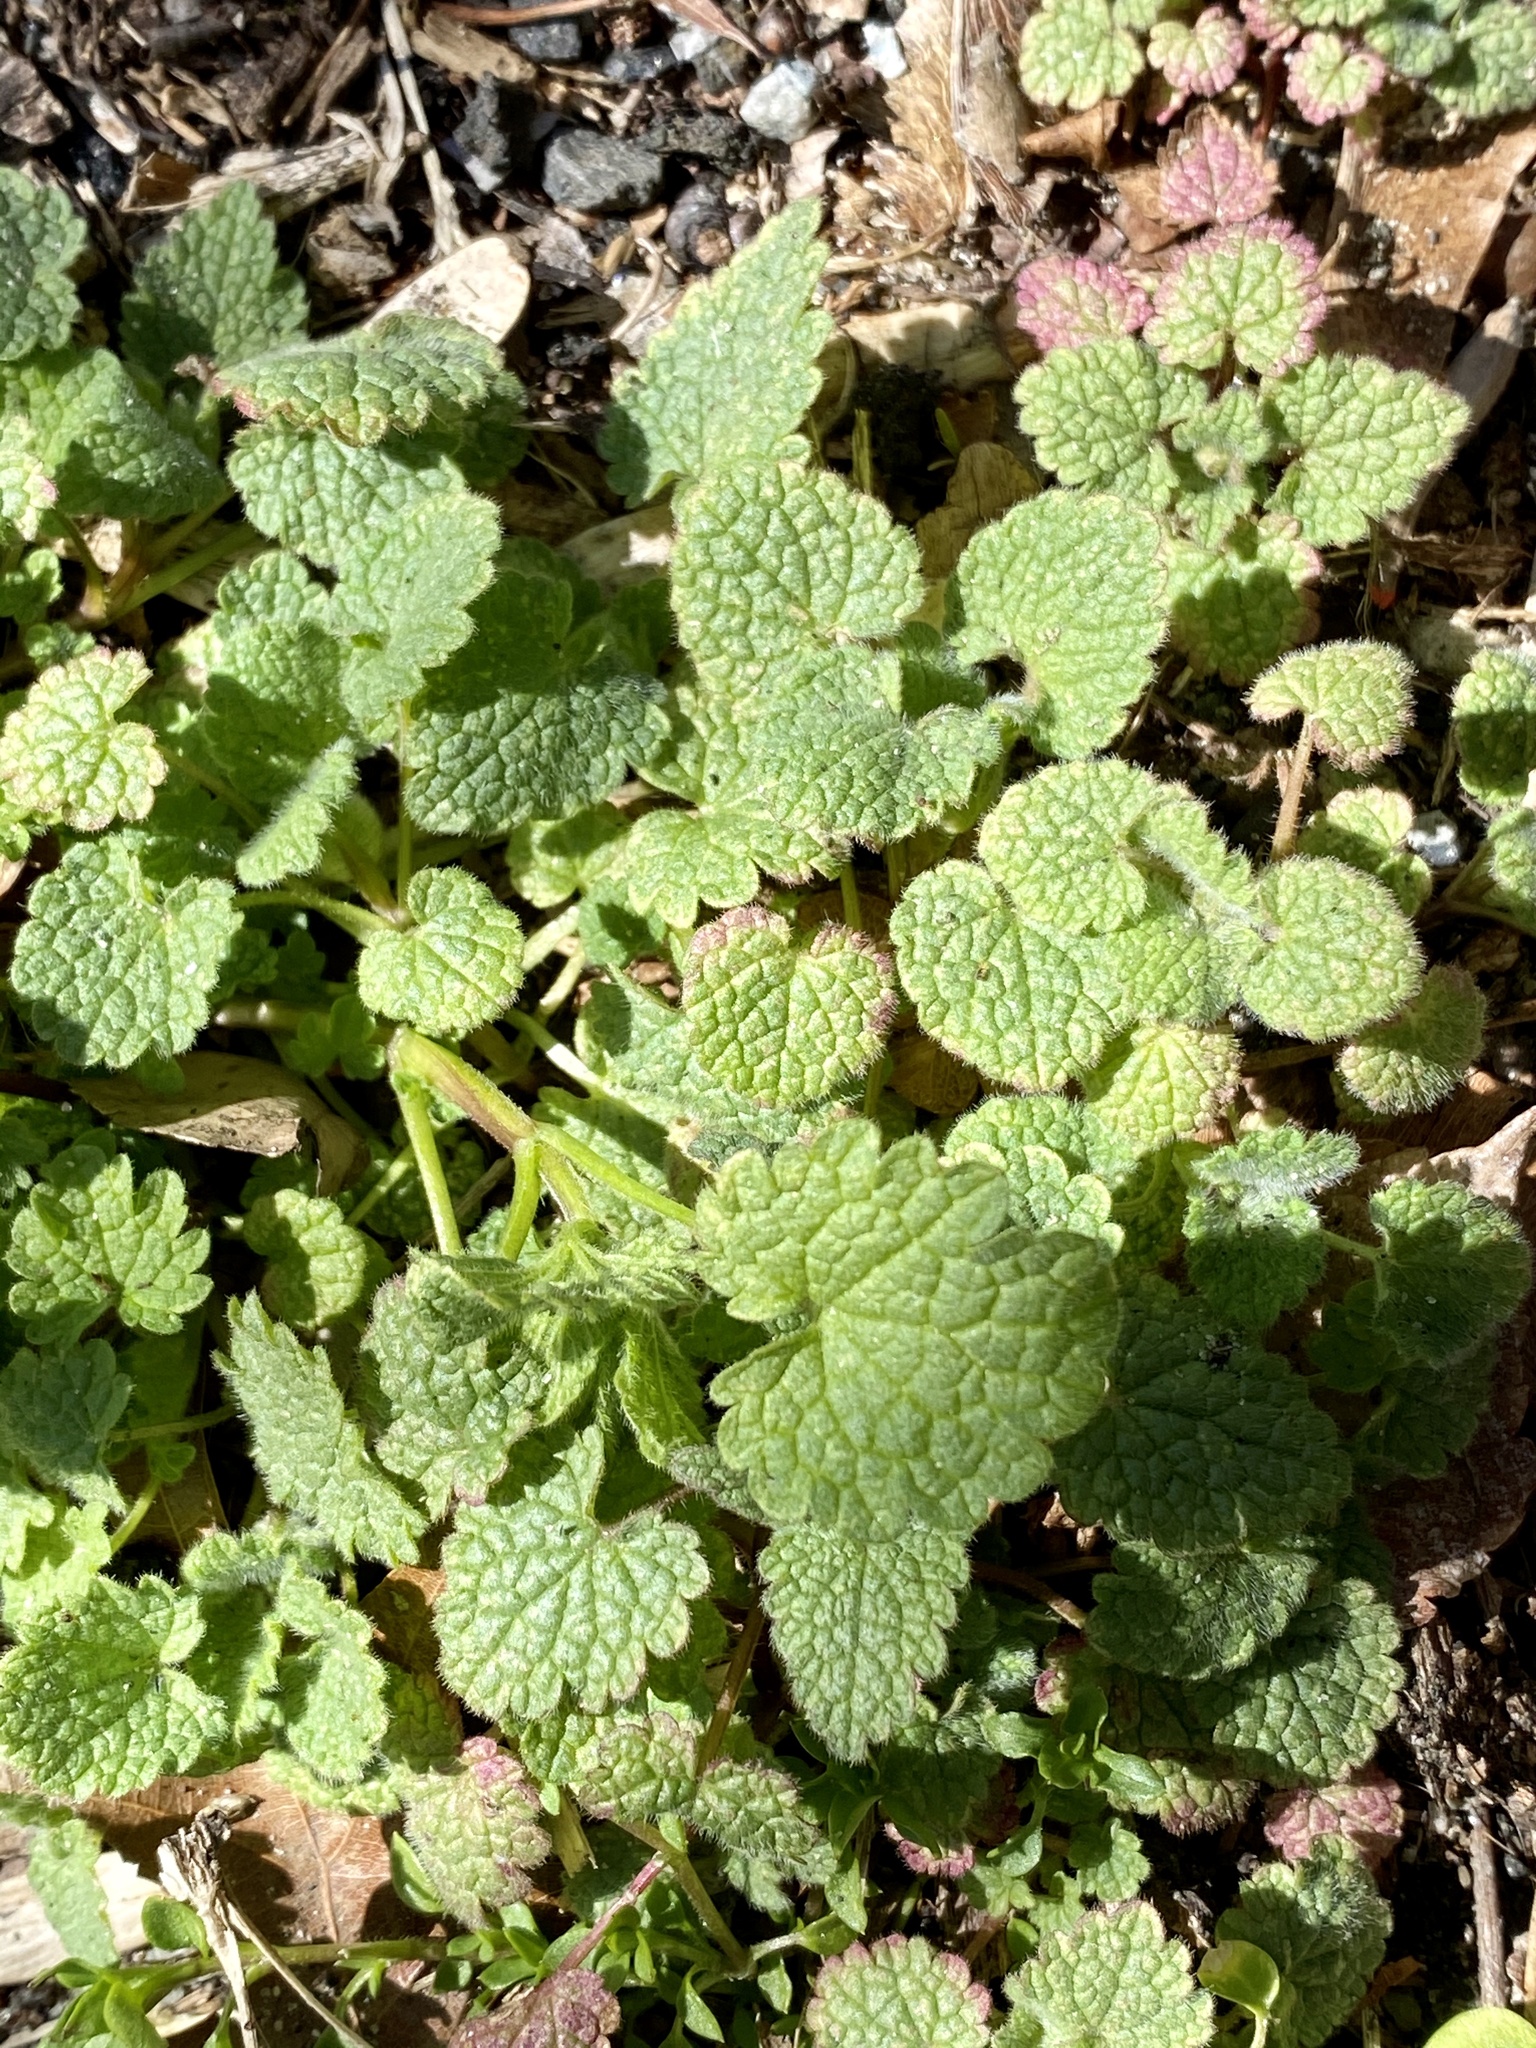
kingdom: Plantae
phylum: Tracheophyta
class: Magnoliopsida
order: Lamiales
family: Lamiaceae
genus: Lamium
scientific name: Lamium purpureum
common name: Red dead-nettle
